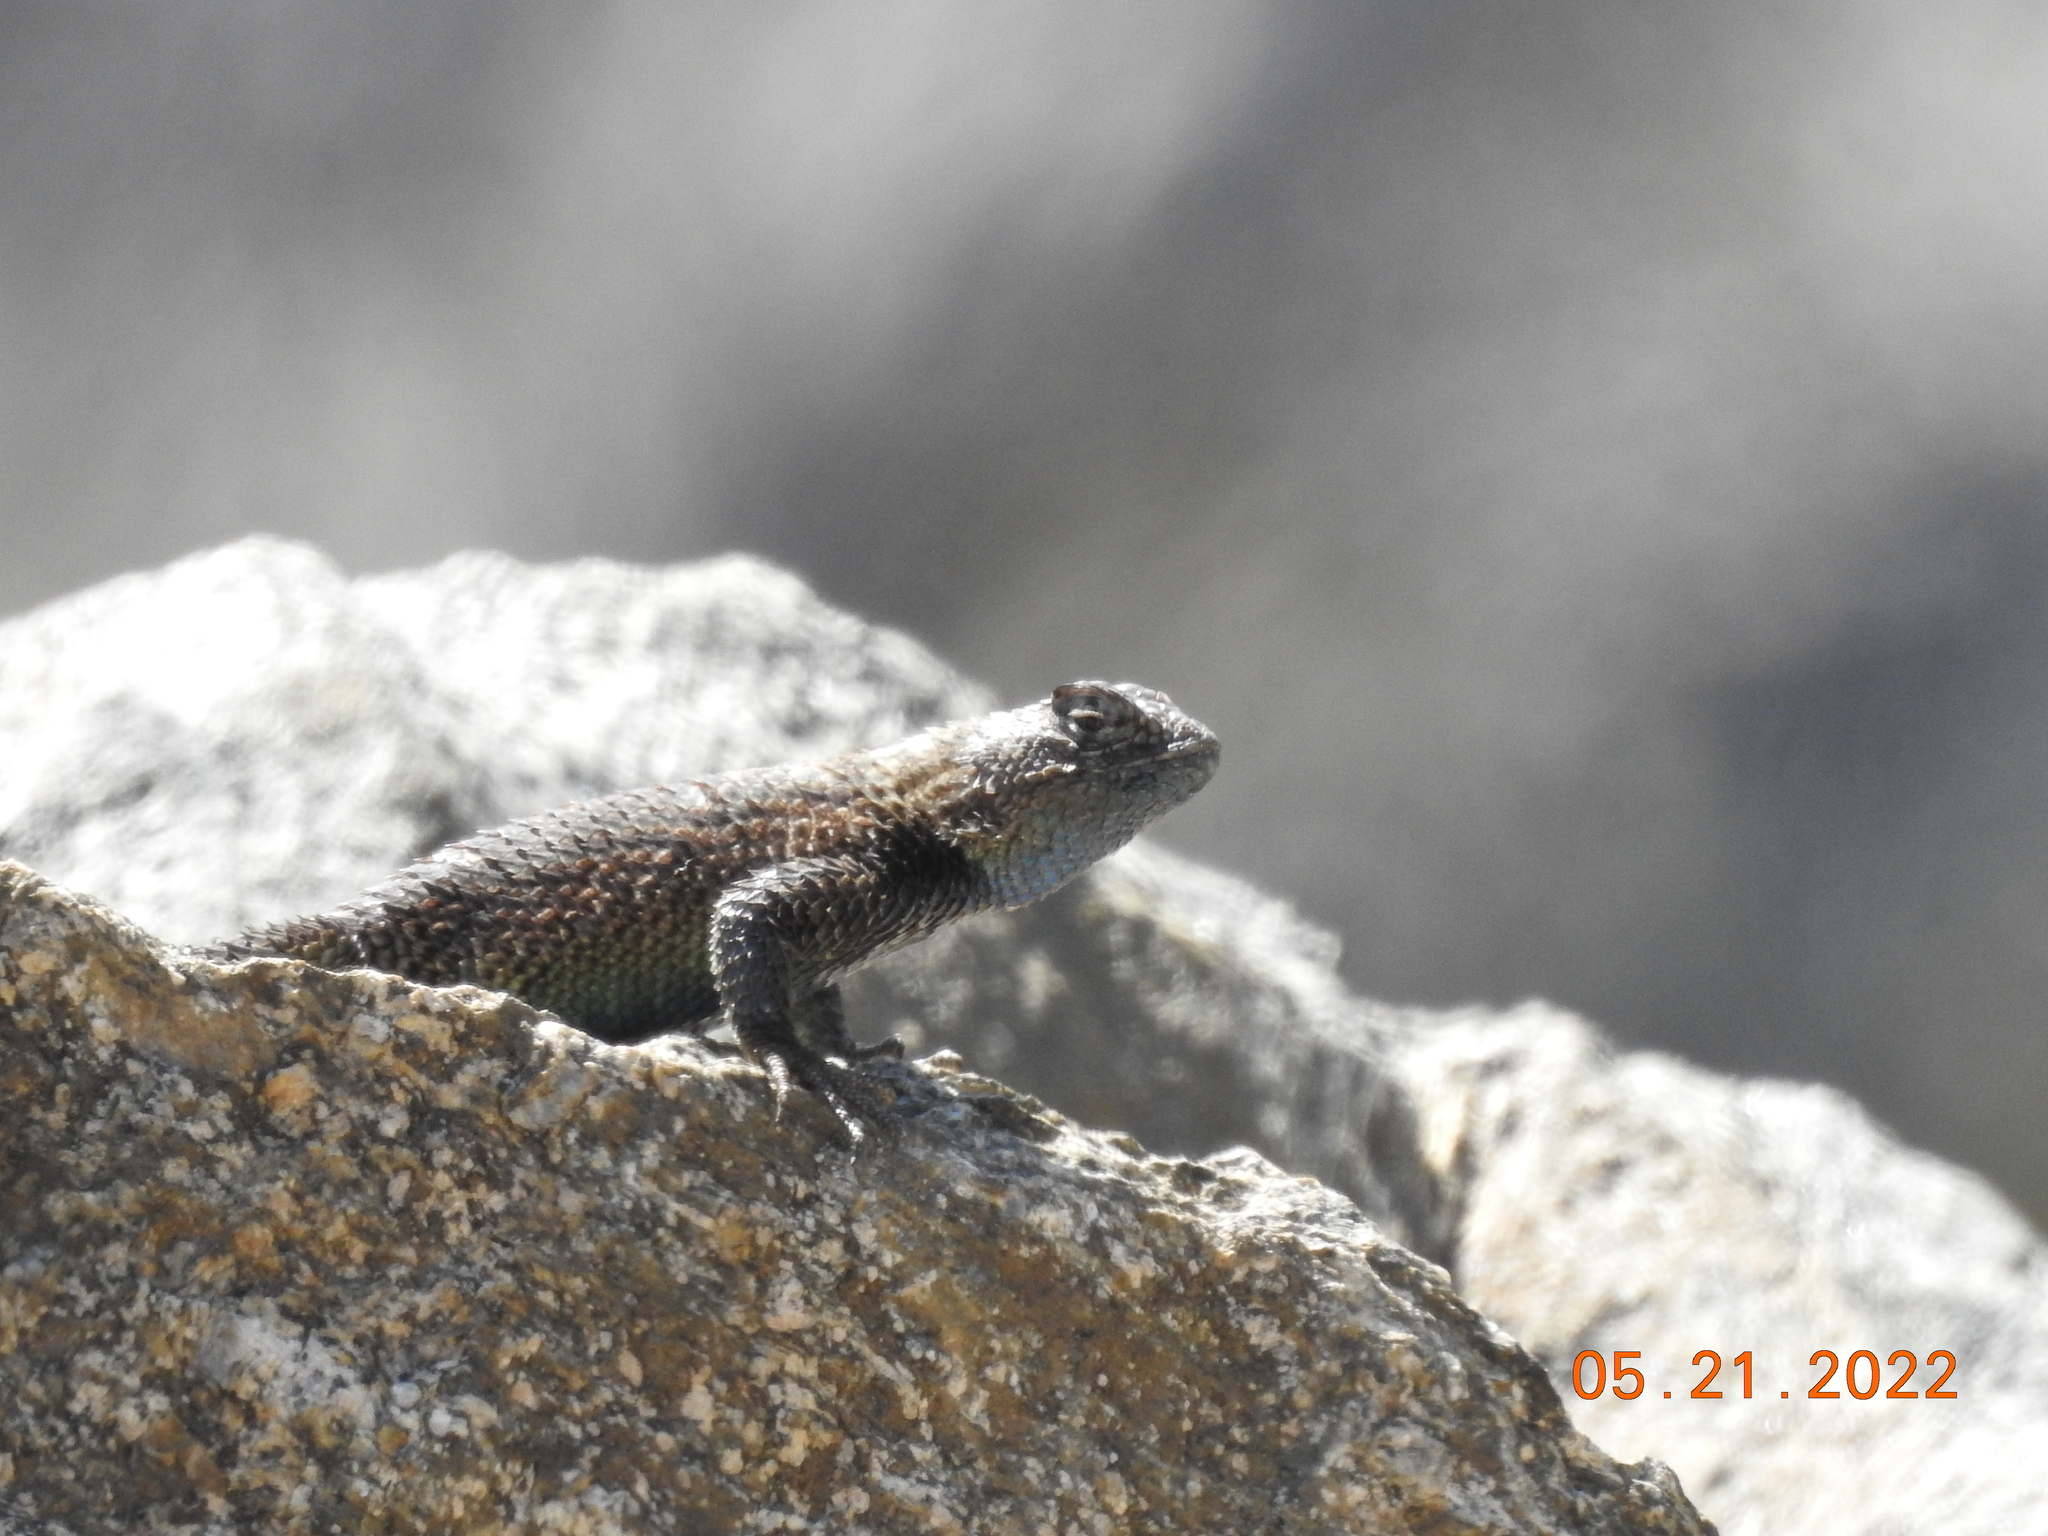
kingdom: Animalia
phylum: Chordata
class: Squamata
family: Phrynosomatidae
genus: Sceloporus
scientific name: Sceloporus orcutti
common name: Granite spiny lizard
